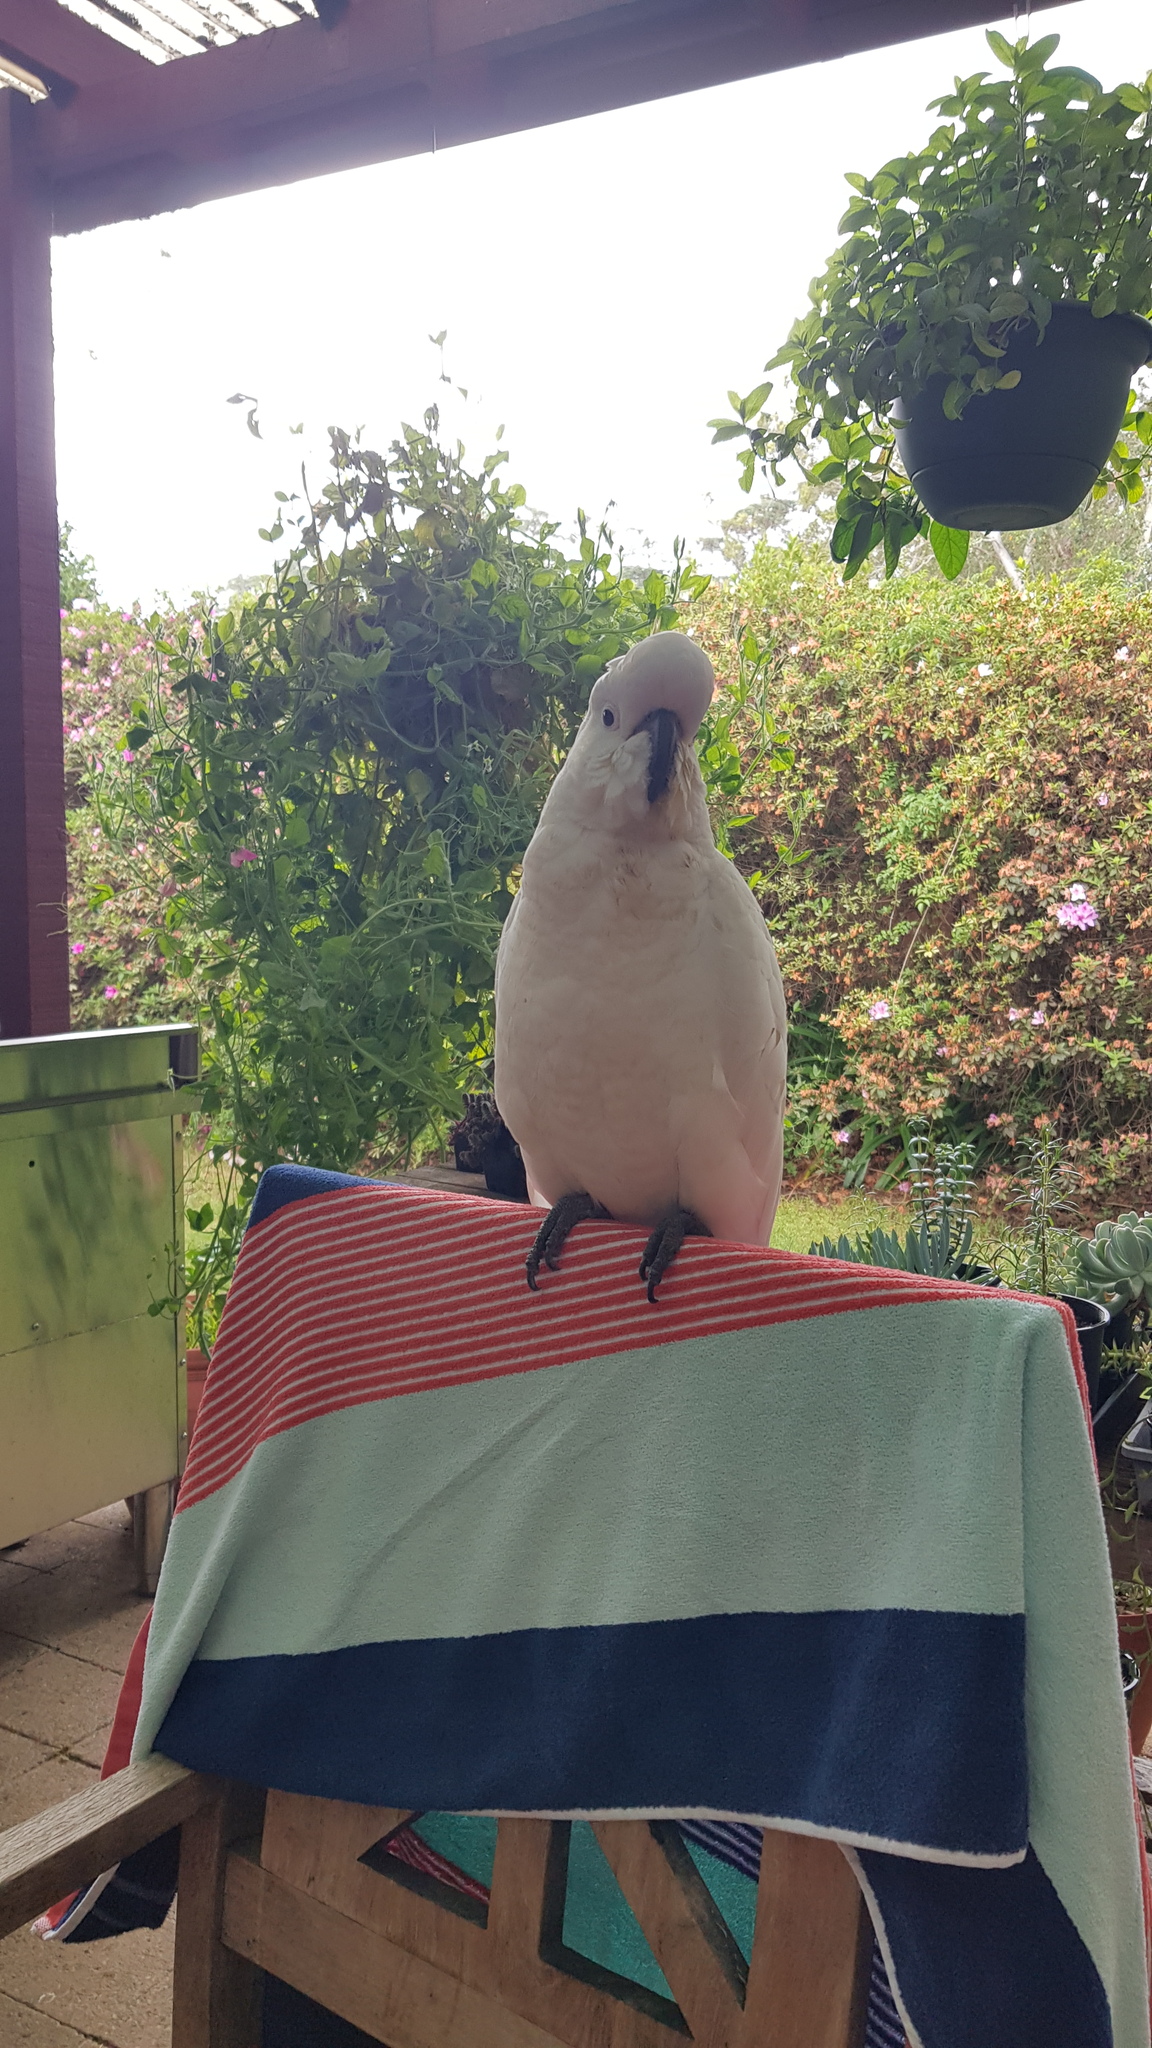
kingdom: Animalia
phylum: Chordata
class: Aves
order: Psittaciformes
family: Psittacidae
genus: Cacatua
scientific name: Cacatua galerita
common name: Sulphur-crested cockatoo
